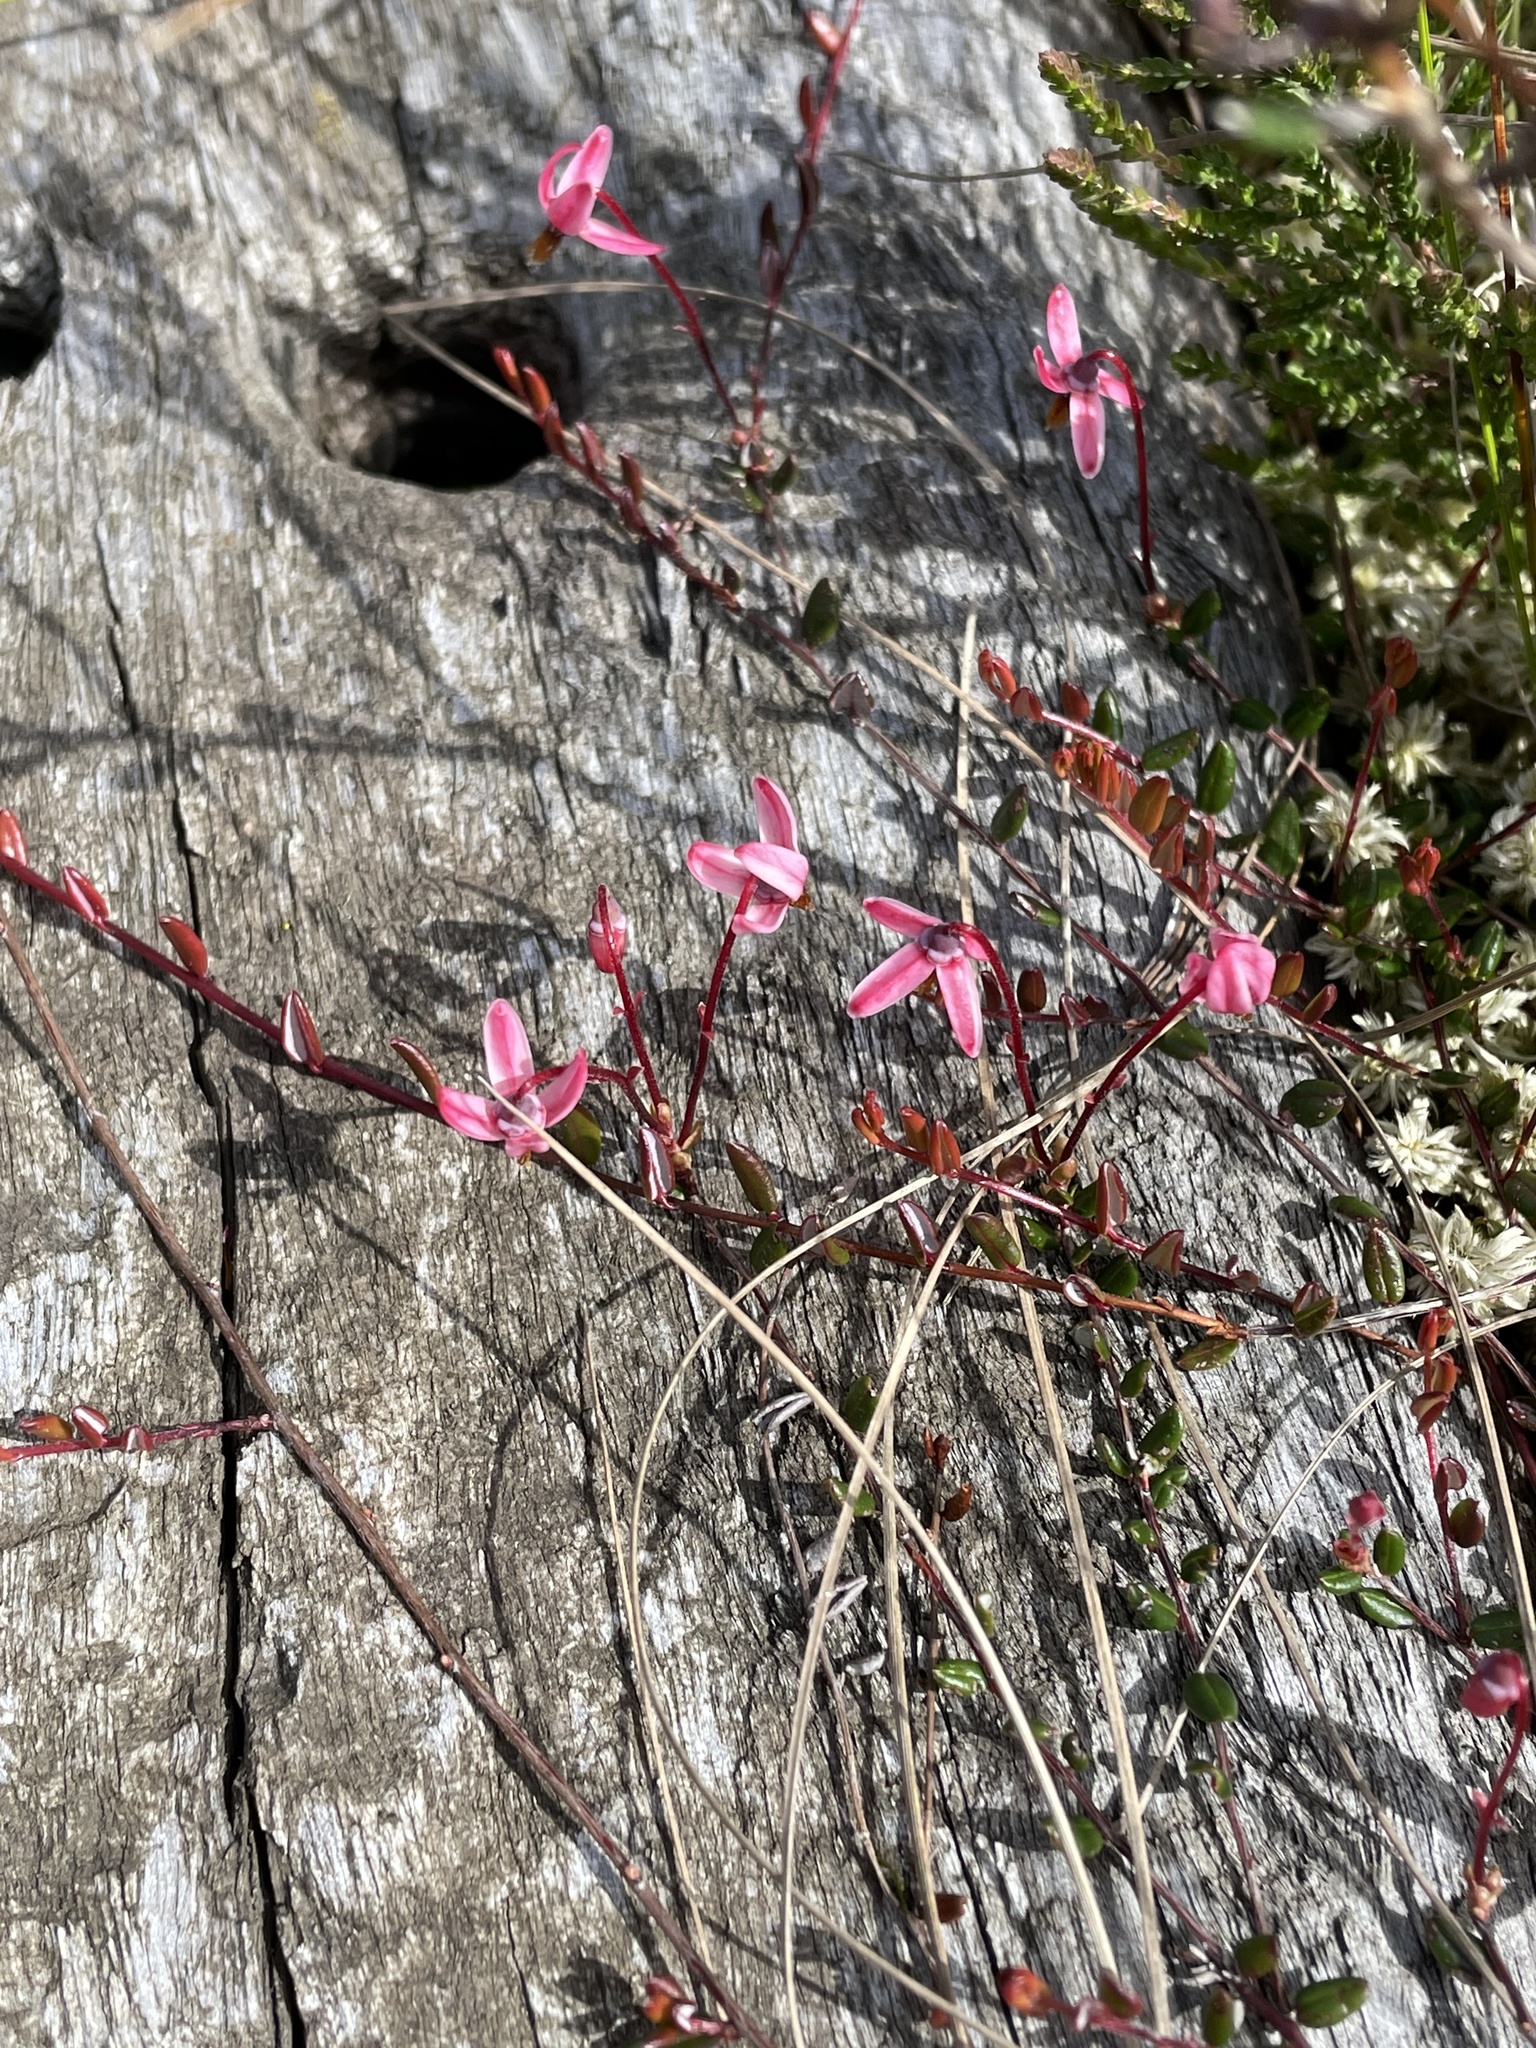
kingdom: Plantae
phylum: Tracheophyta
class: Magnoliopsida
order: Ericales
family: Ericaceae
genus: Vaccinium
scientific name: Vaccinium oxycoccos
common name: Cranberry
